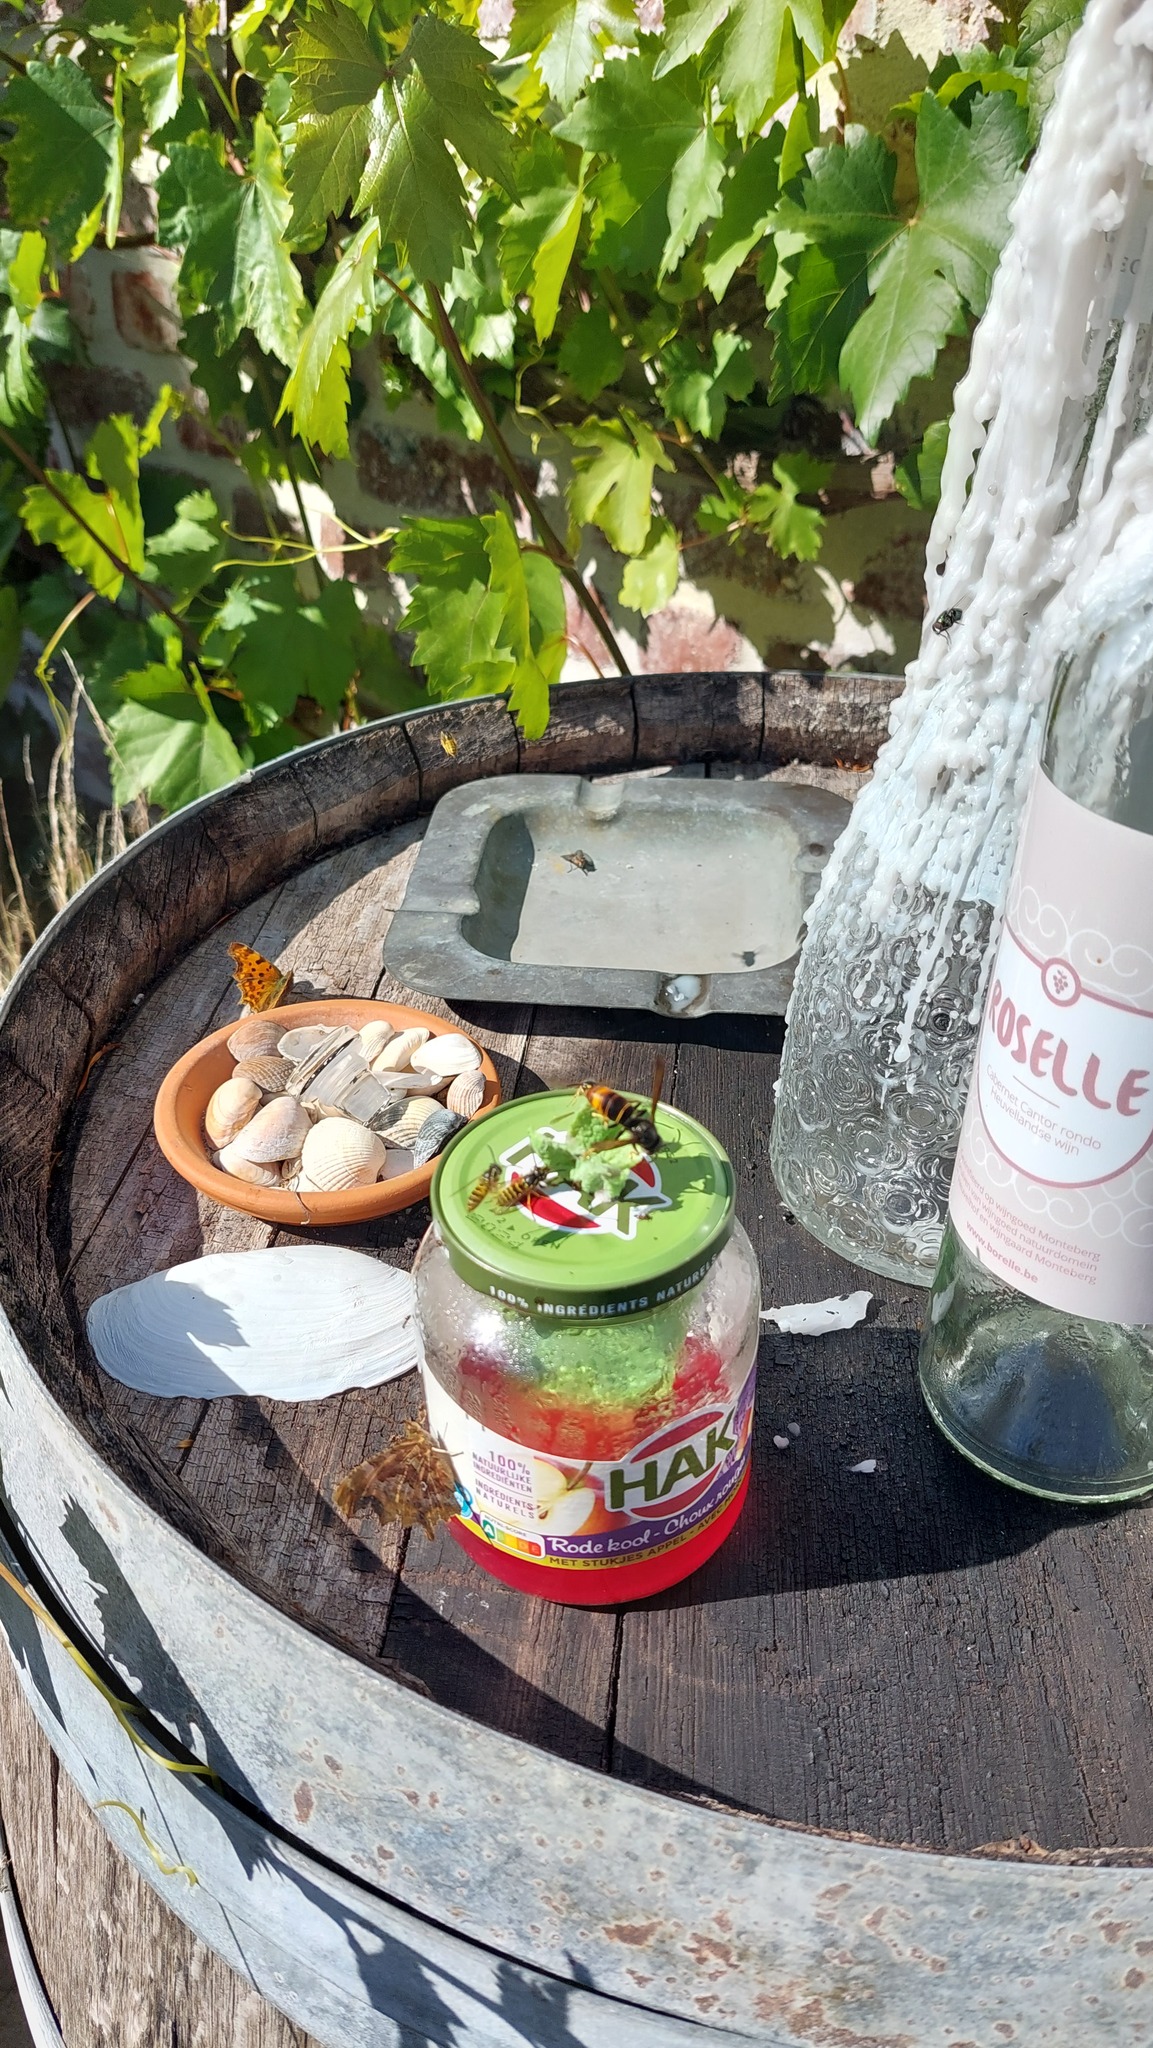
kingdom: Animalia
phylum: Arthropoda
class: Insecta
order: Hymenoptera
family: Vespidae
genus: Vespa
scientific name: Vespa velutina
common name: Asian hornet
